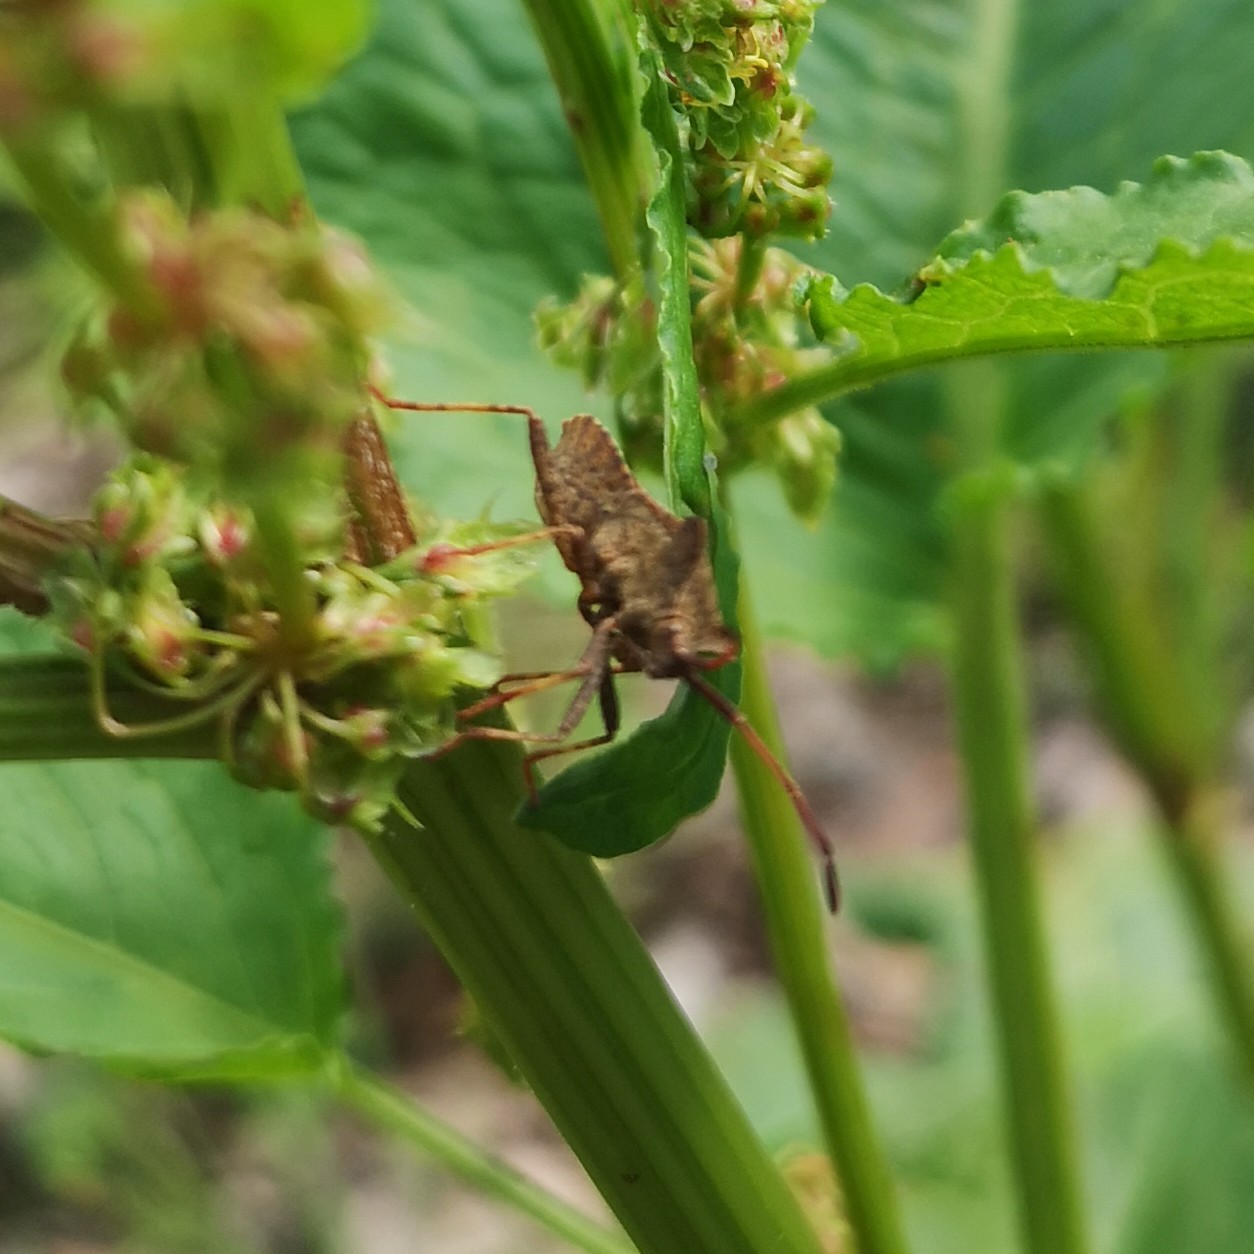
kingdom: Animalia
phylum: Arthropoda
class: Insecta
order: Hemiptera
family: Coreidae
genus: Coreus
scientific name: Coreus marginatus
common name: Dock bug
